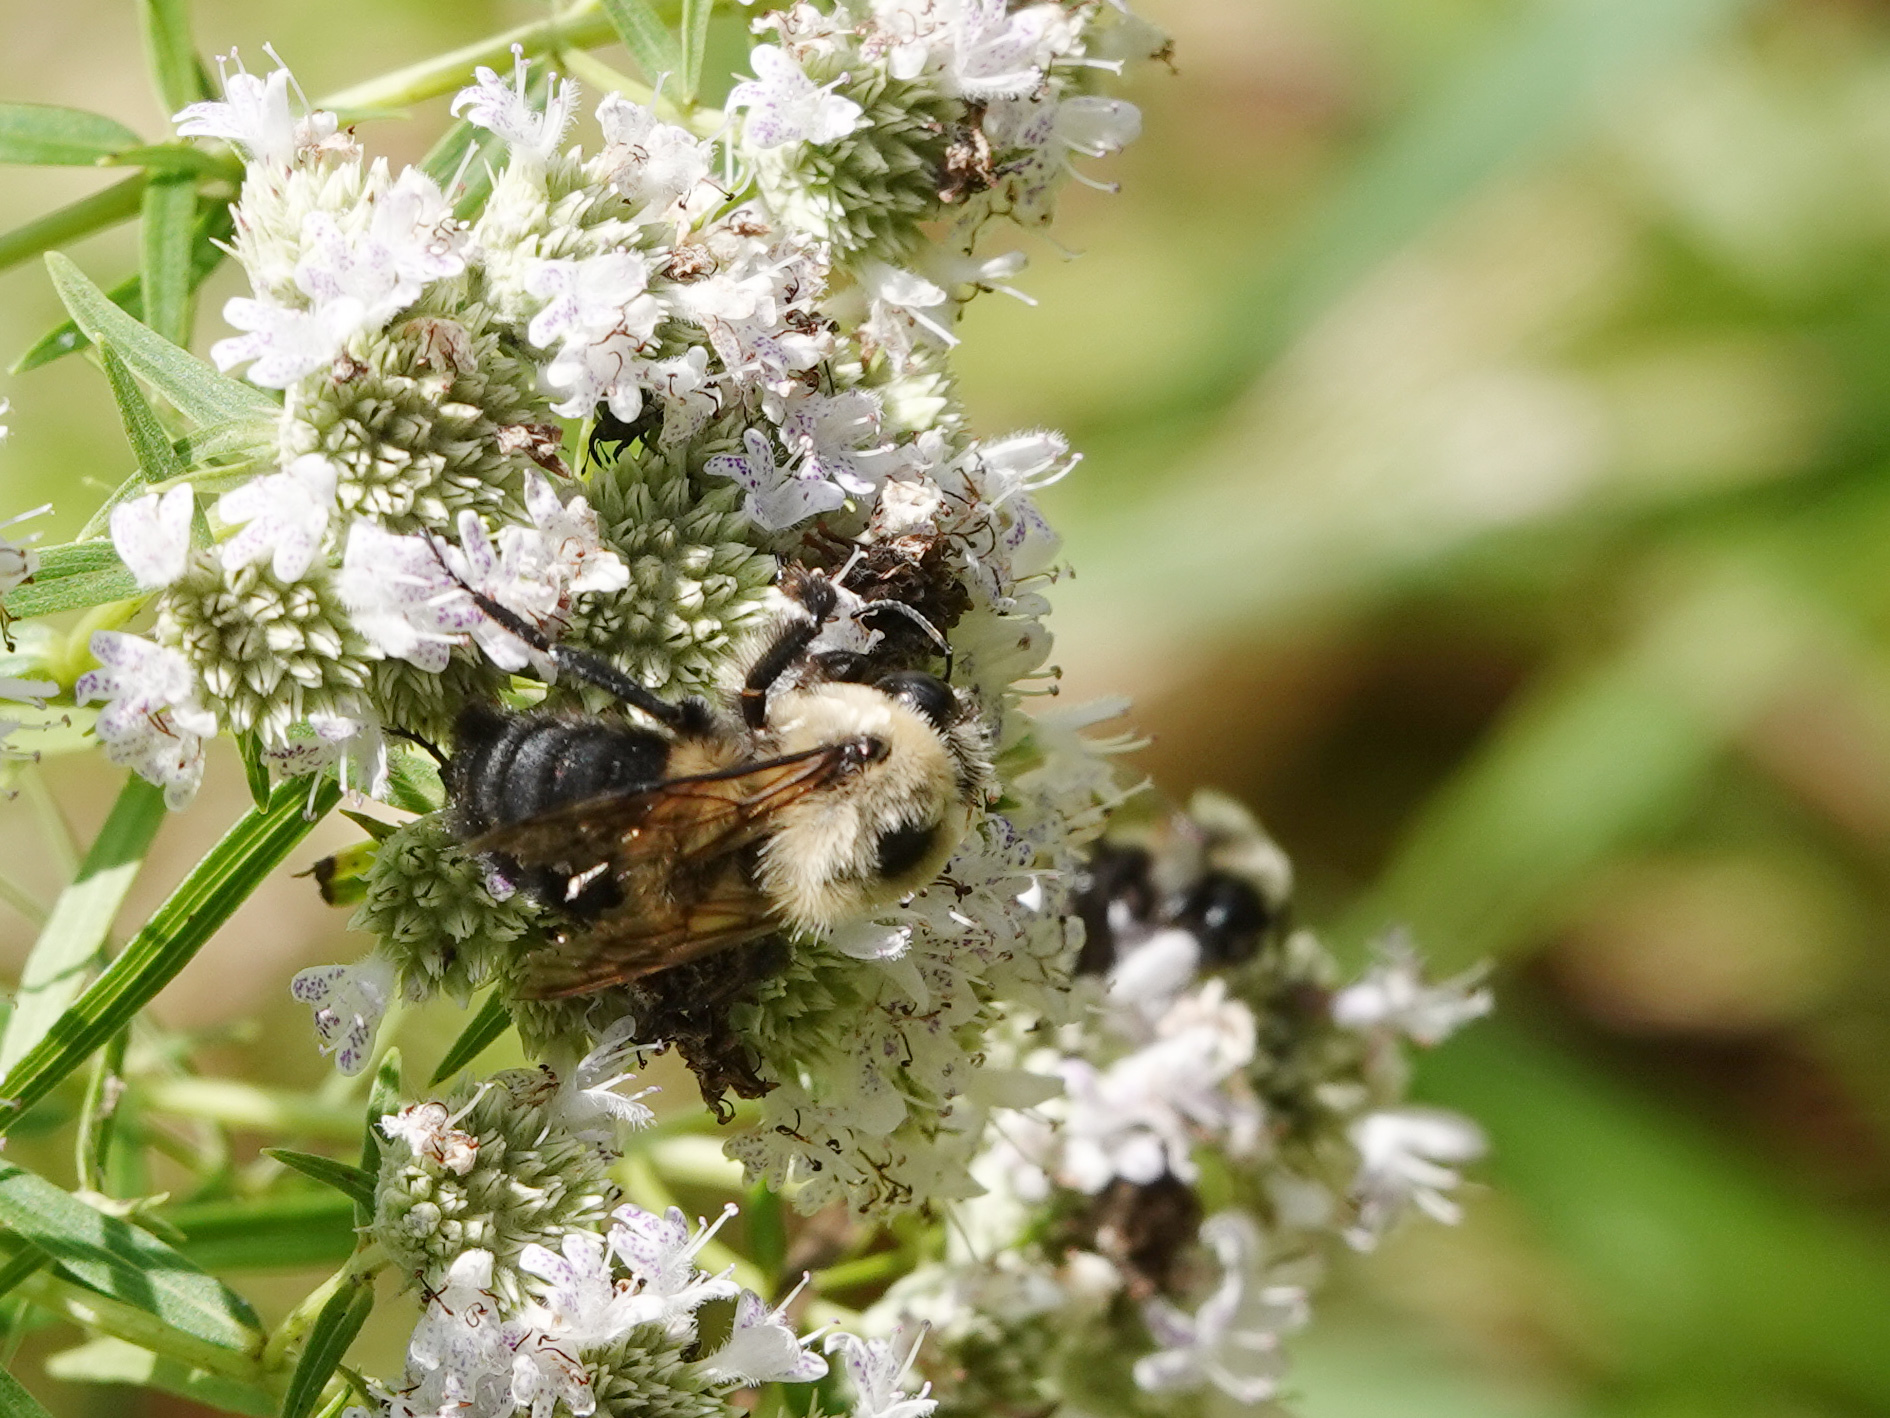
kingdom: Animalia
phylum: Arthropoda
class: Insecta
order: Hymenoptera
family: Apidae
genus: Bombus
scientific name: Bombus griseocollis
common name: Brown-belted bumble bee
